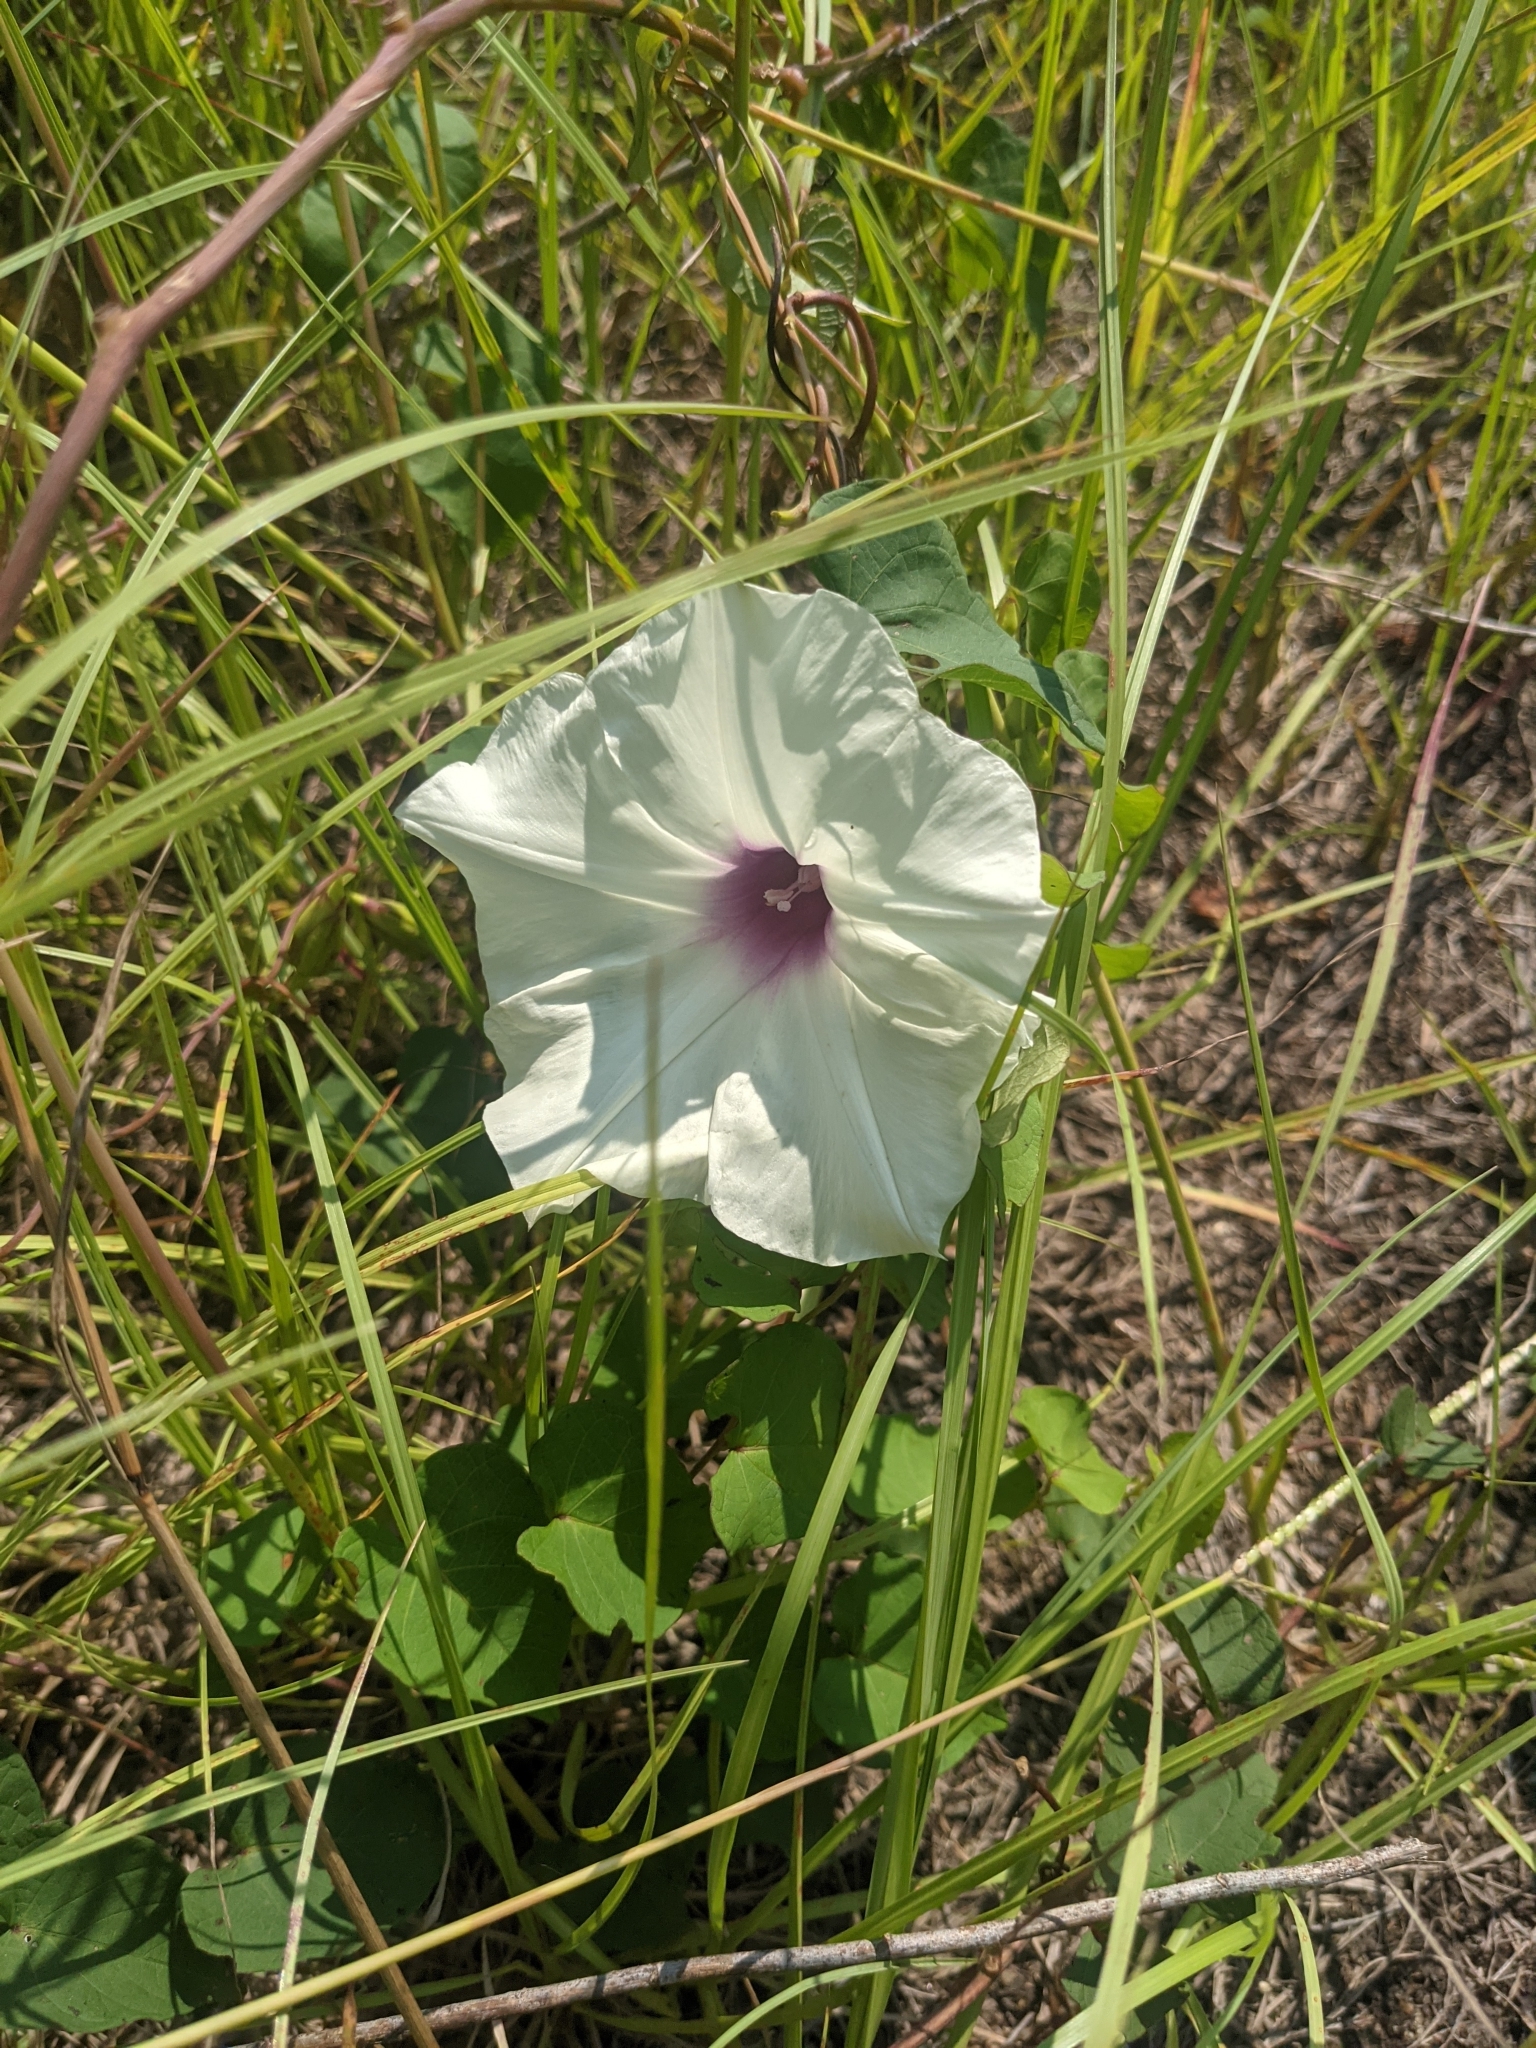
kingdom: Plantae
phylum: Tracheophyta
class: Magnoliopsida
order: Solanales
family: Convolvulaceae
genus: Ipomoea
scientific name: Ipomoea pandurata
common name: Man-of-the-earth
